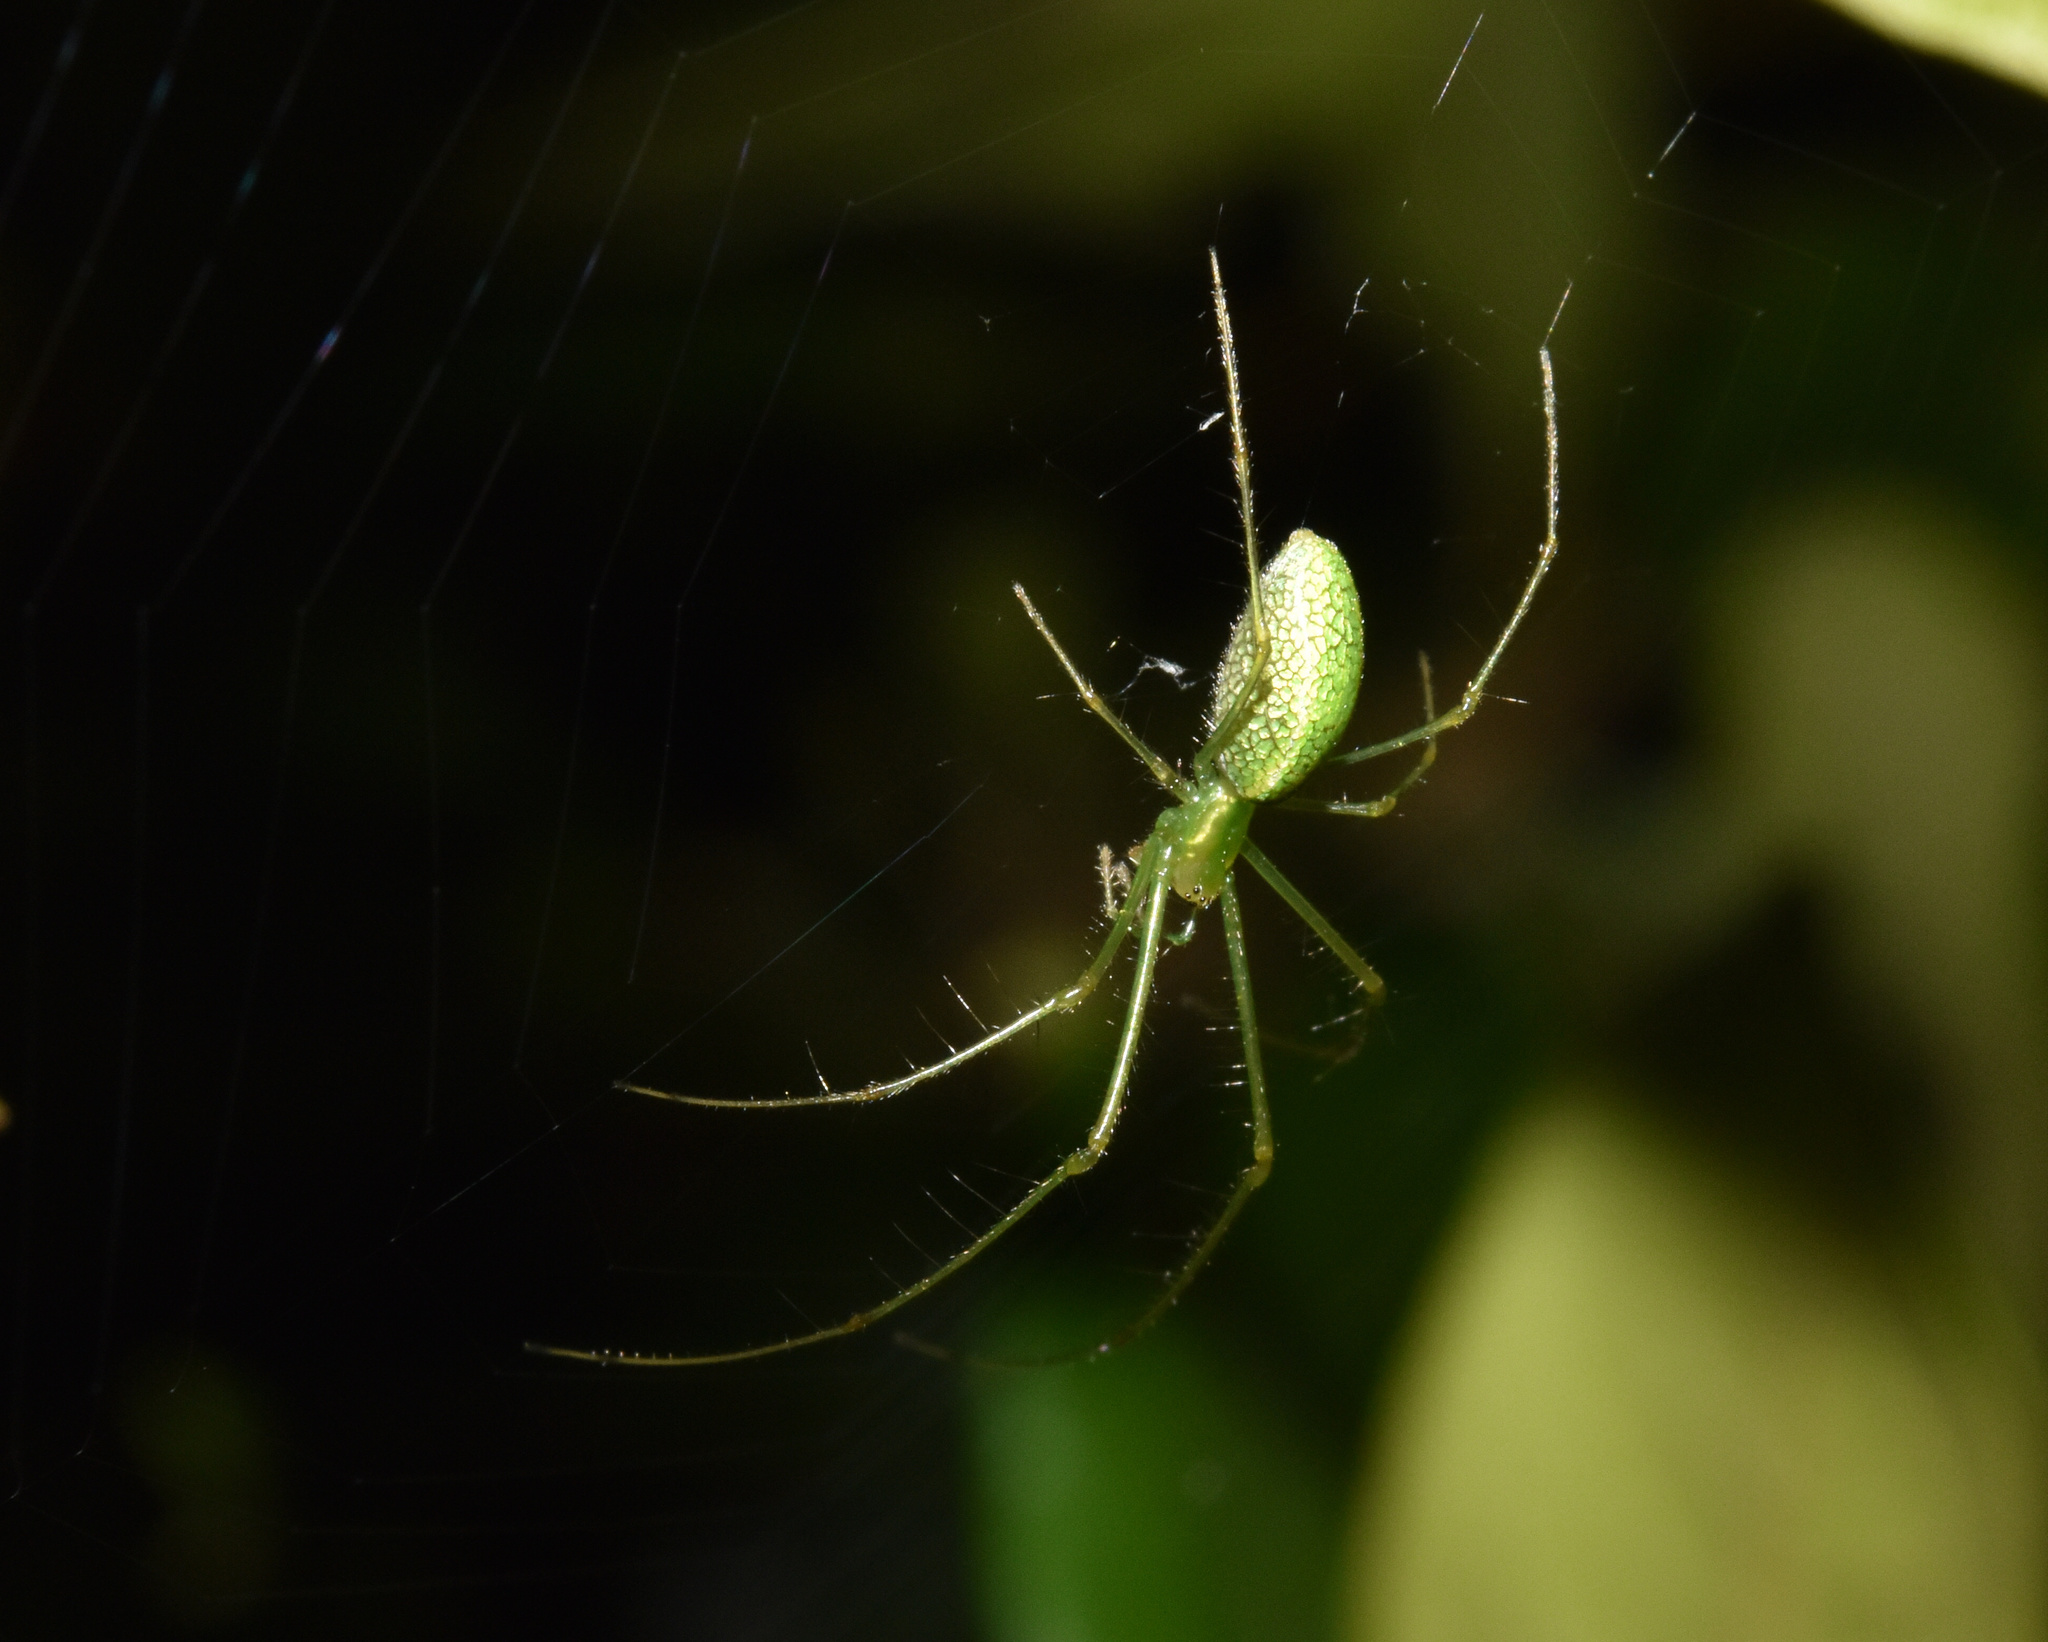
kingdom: Animalia
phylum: Arthropoda
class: Arachnida
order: Araneae
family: Tetragnathidae
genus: Tetragnatha
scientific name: Tetragnatha subsquamata
